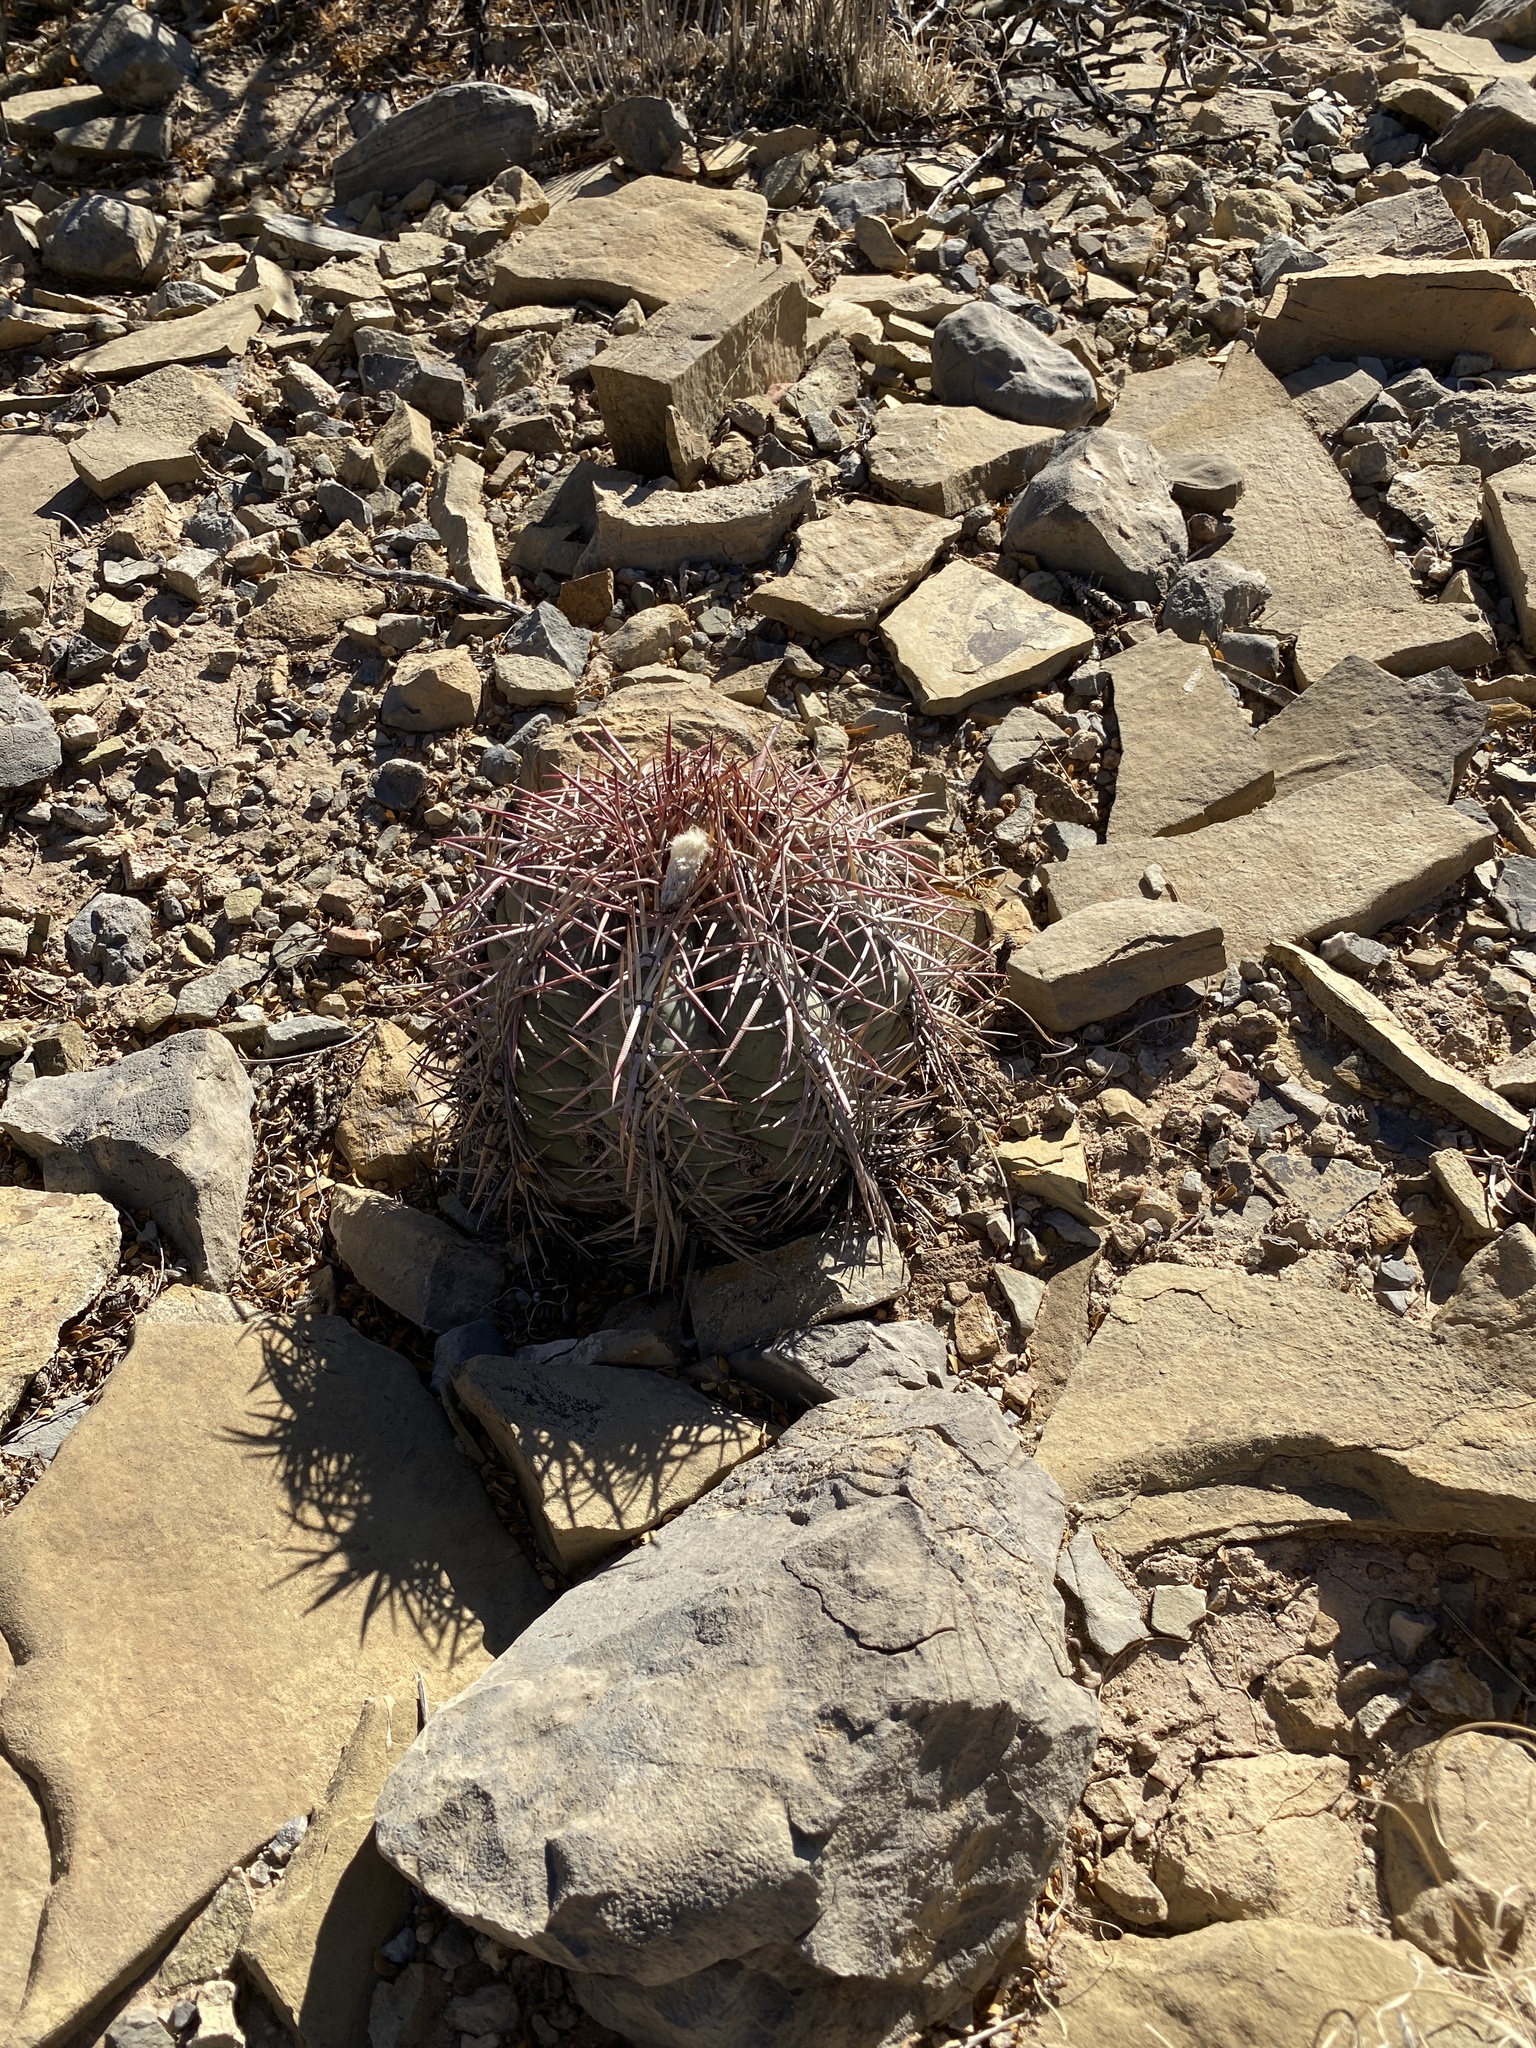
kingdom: Plantae
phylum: Tracheophyta
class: Magnoliopsida
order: Caryophyllales
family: Cactaceae
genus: Echinocactus
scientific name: Echinocactus horizonthalonius
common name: Devilshead
